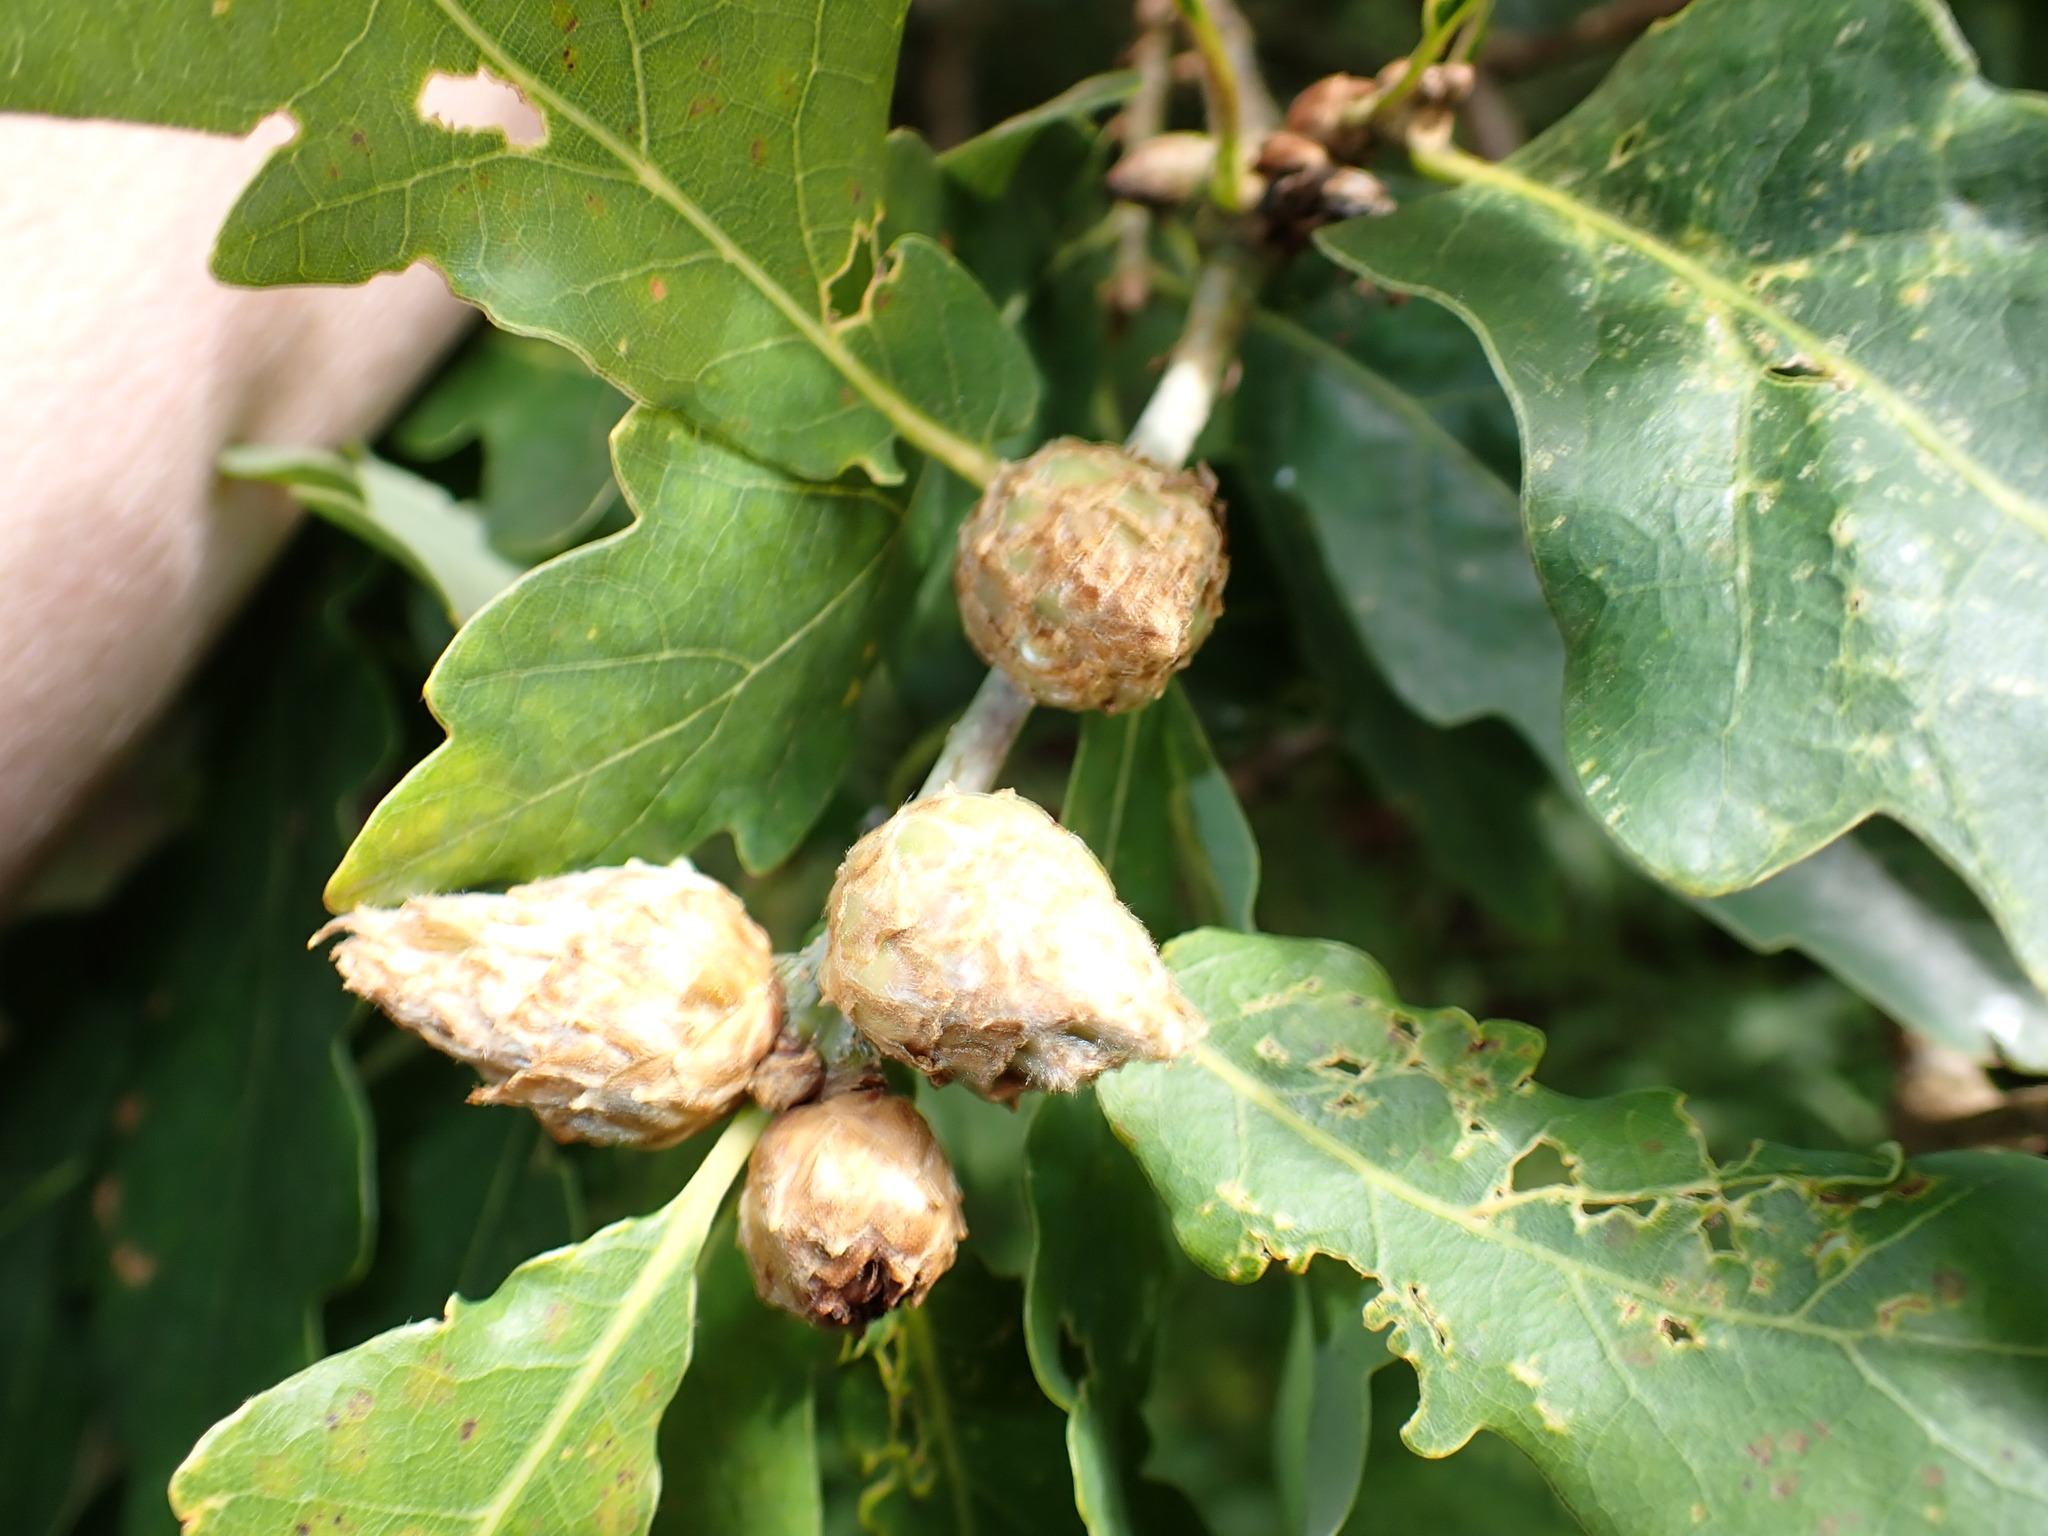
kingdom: Animalia
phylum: Arthropoda
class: Insecta
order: Hymenoptera
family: Cynipidae
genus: Andricus
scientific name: Andricus foecundatrix
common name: Artichoke gall
